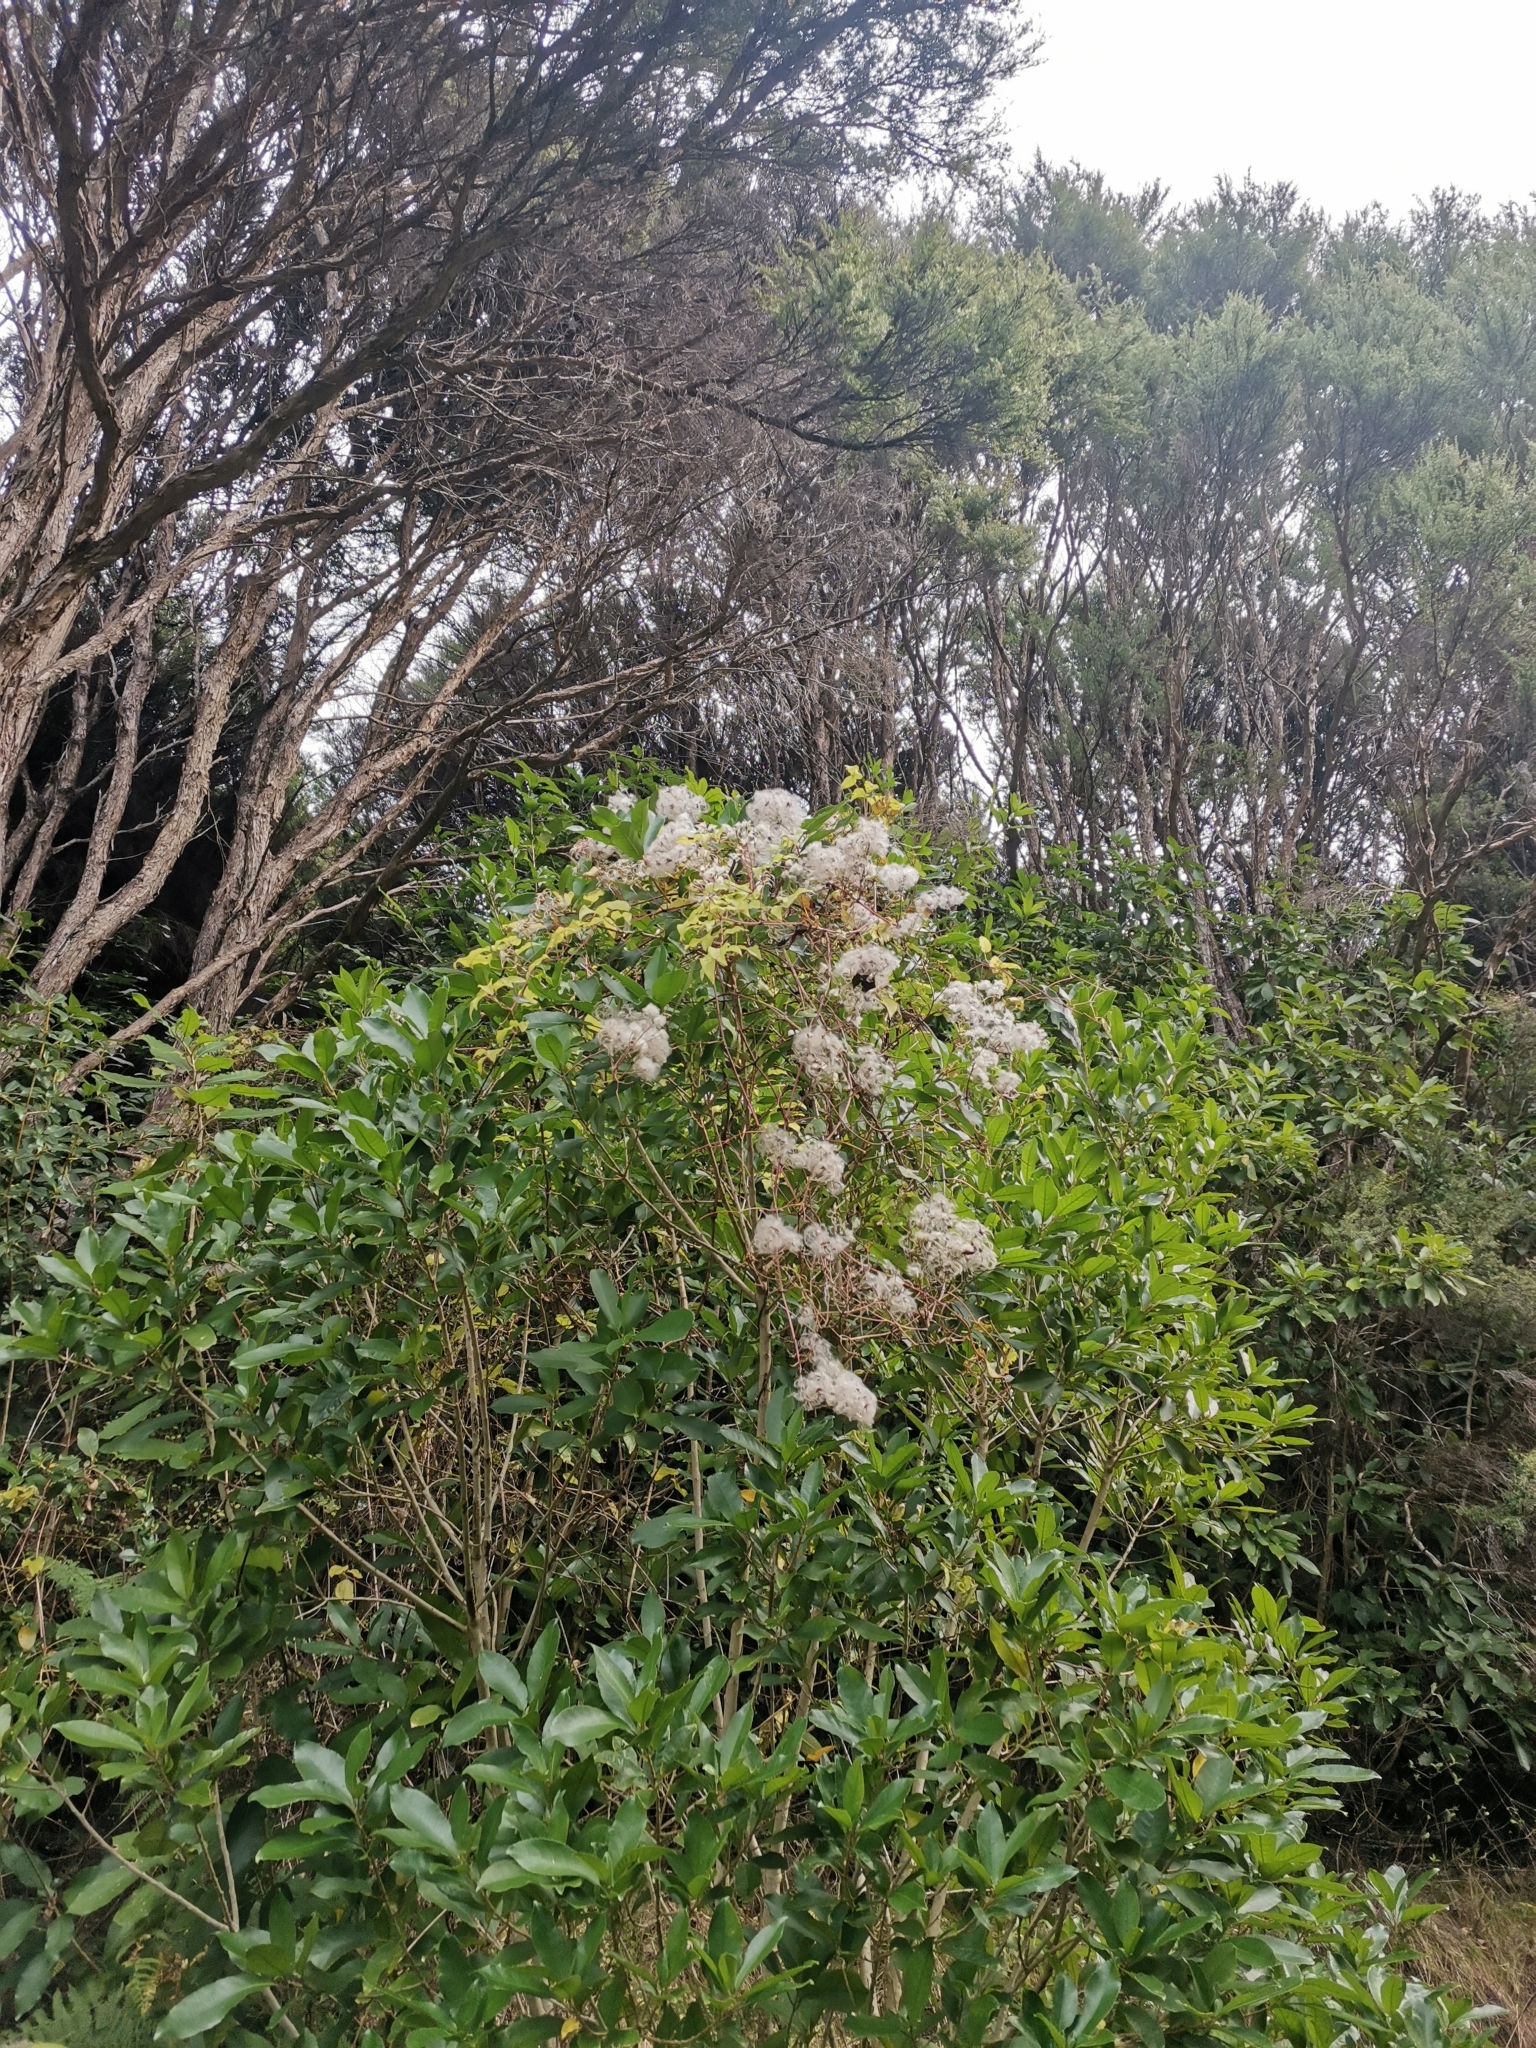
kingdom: Plantae
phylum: Tracheophyta
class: Magnoliopsida
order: Ranunculales
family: Ranunculaceae
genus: Clematis
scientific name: Clematis vitalba
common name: Evergreen clematis
